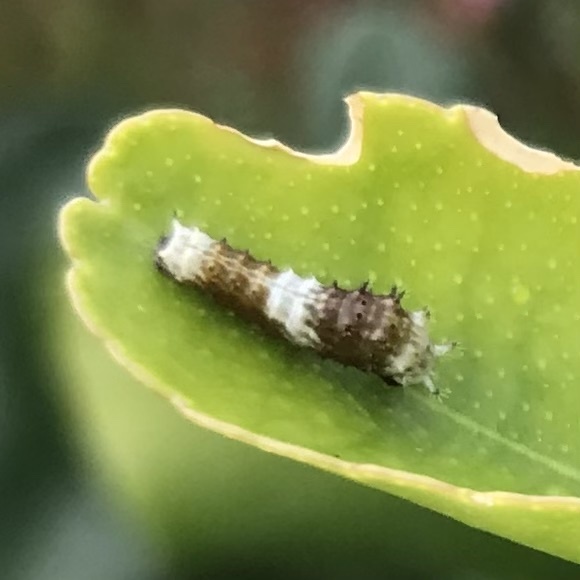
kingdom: Animalia
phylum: Arthropoda
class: Insecta
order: Lepidoptera
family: Papilionidae
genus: Papilio
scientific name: Papilio aegeus
